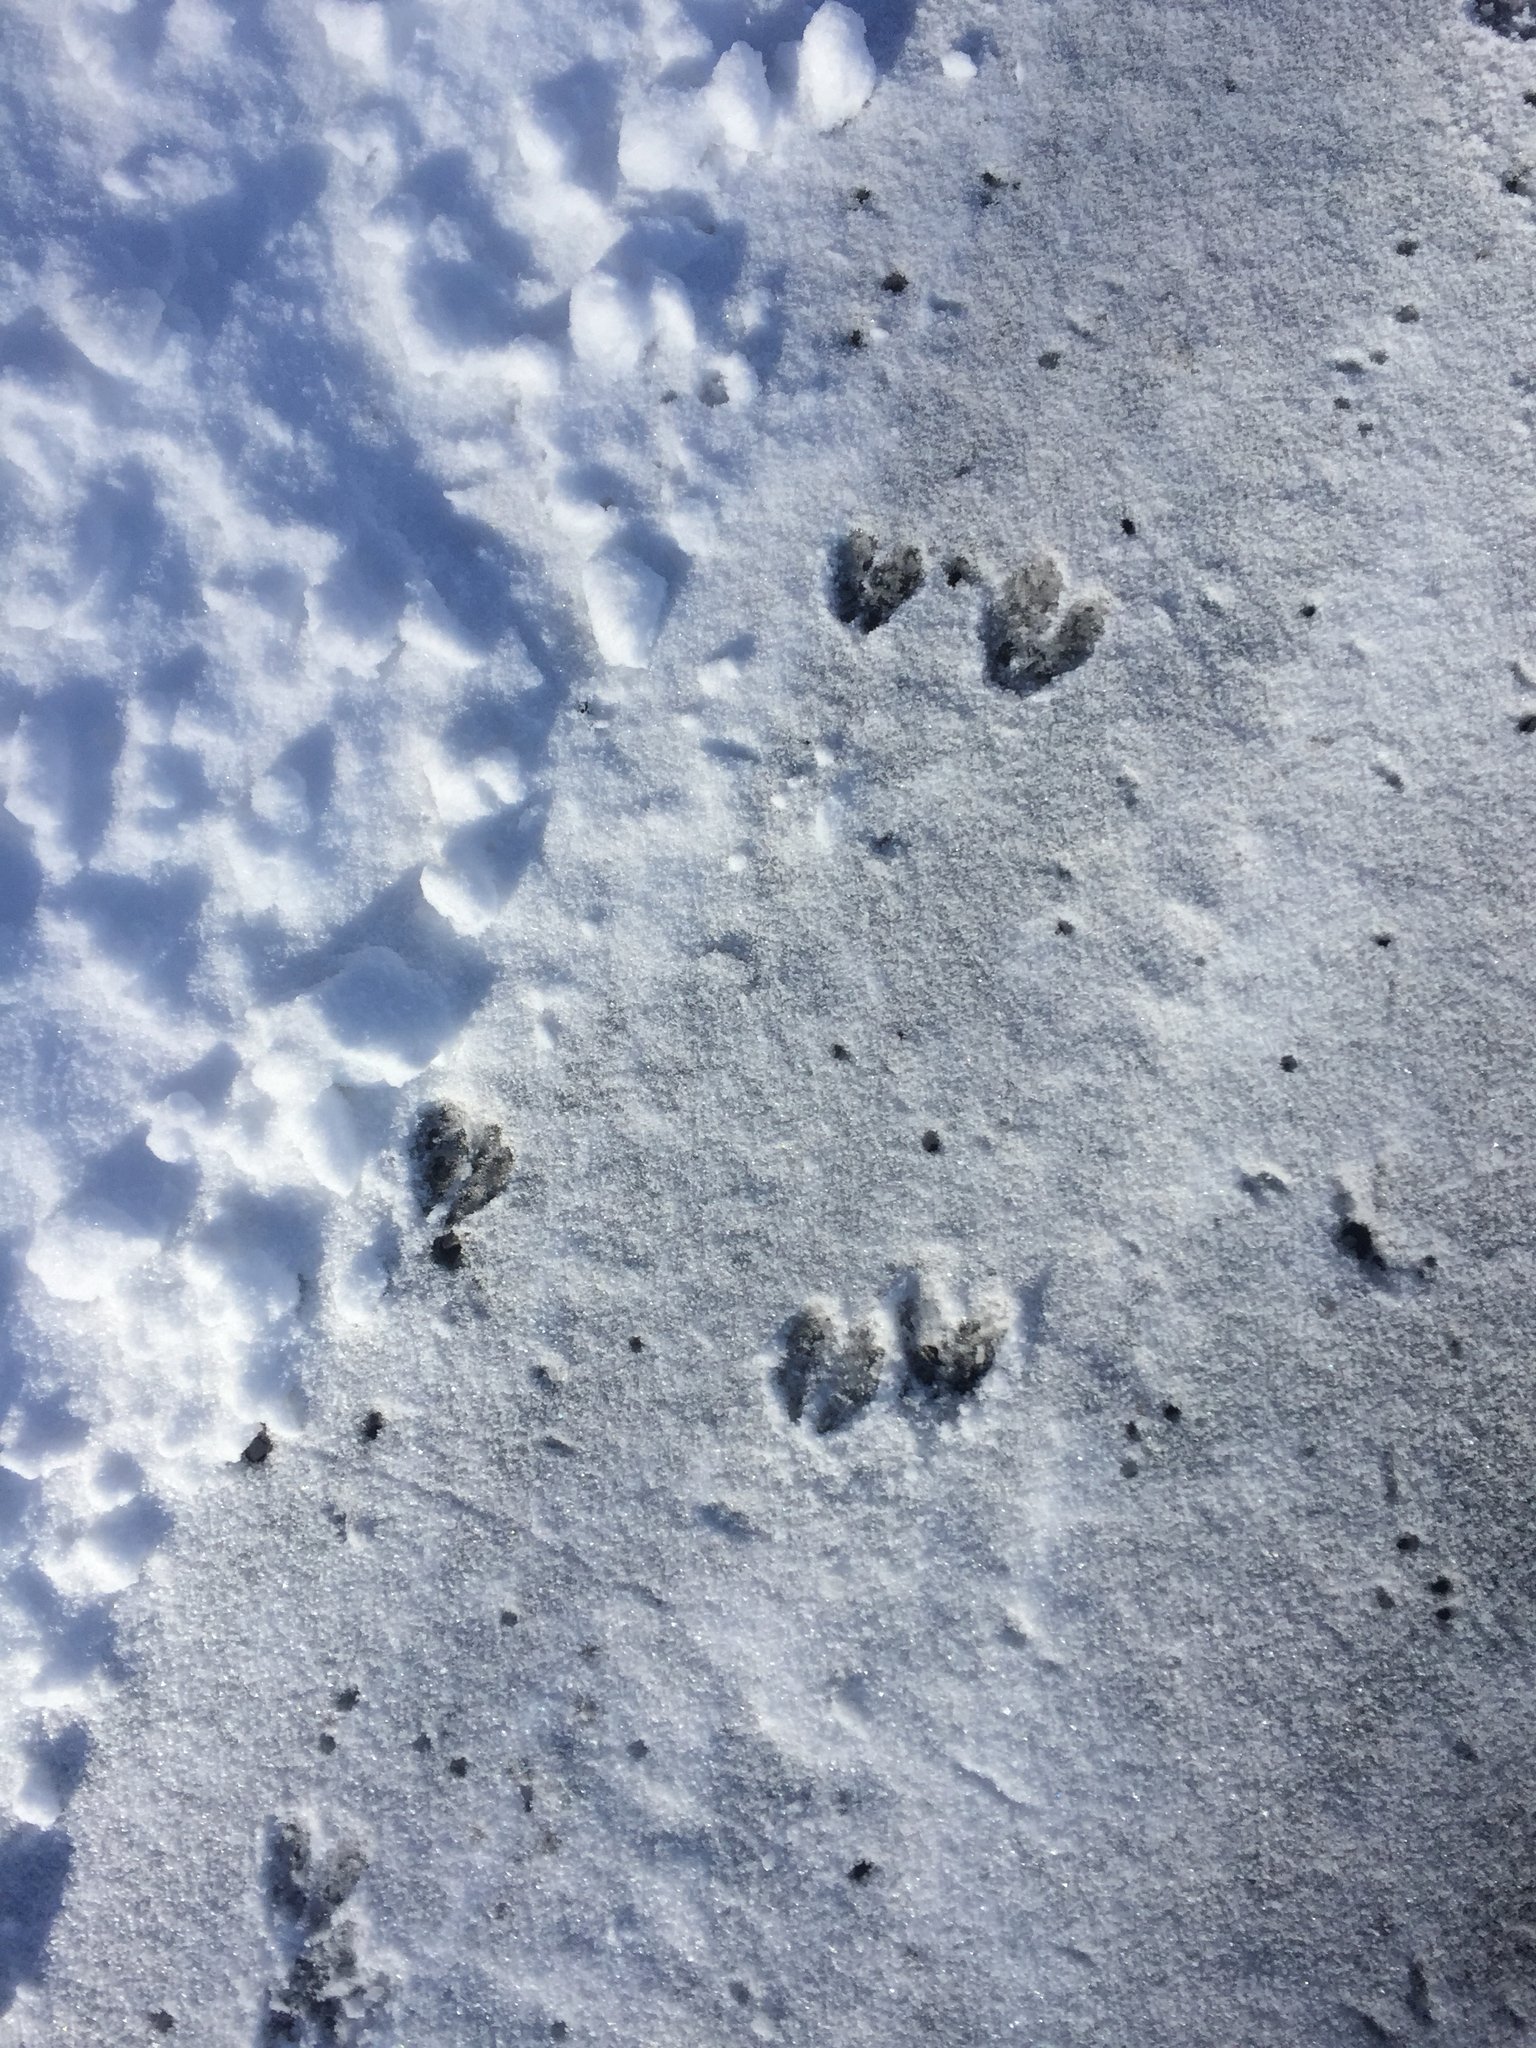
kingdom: Animalia
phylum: Chordata
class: Mammalia
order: Artiodactyla
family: Cervidae
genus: Odocoileus
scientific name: Odocoileus virginianus
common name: White-tailed deer
